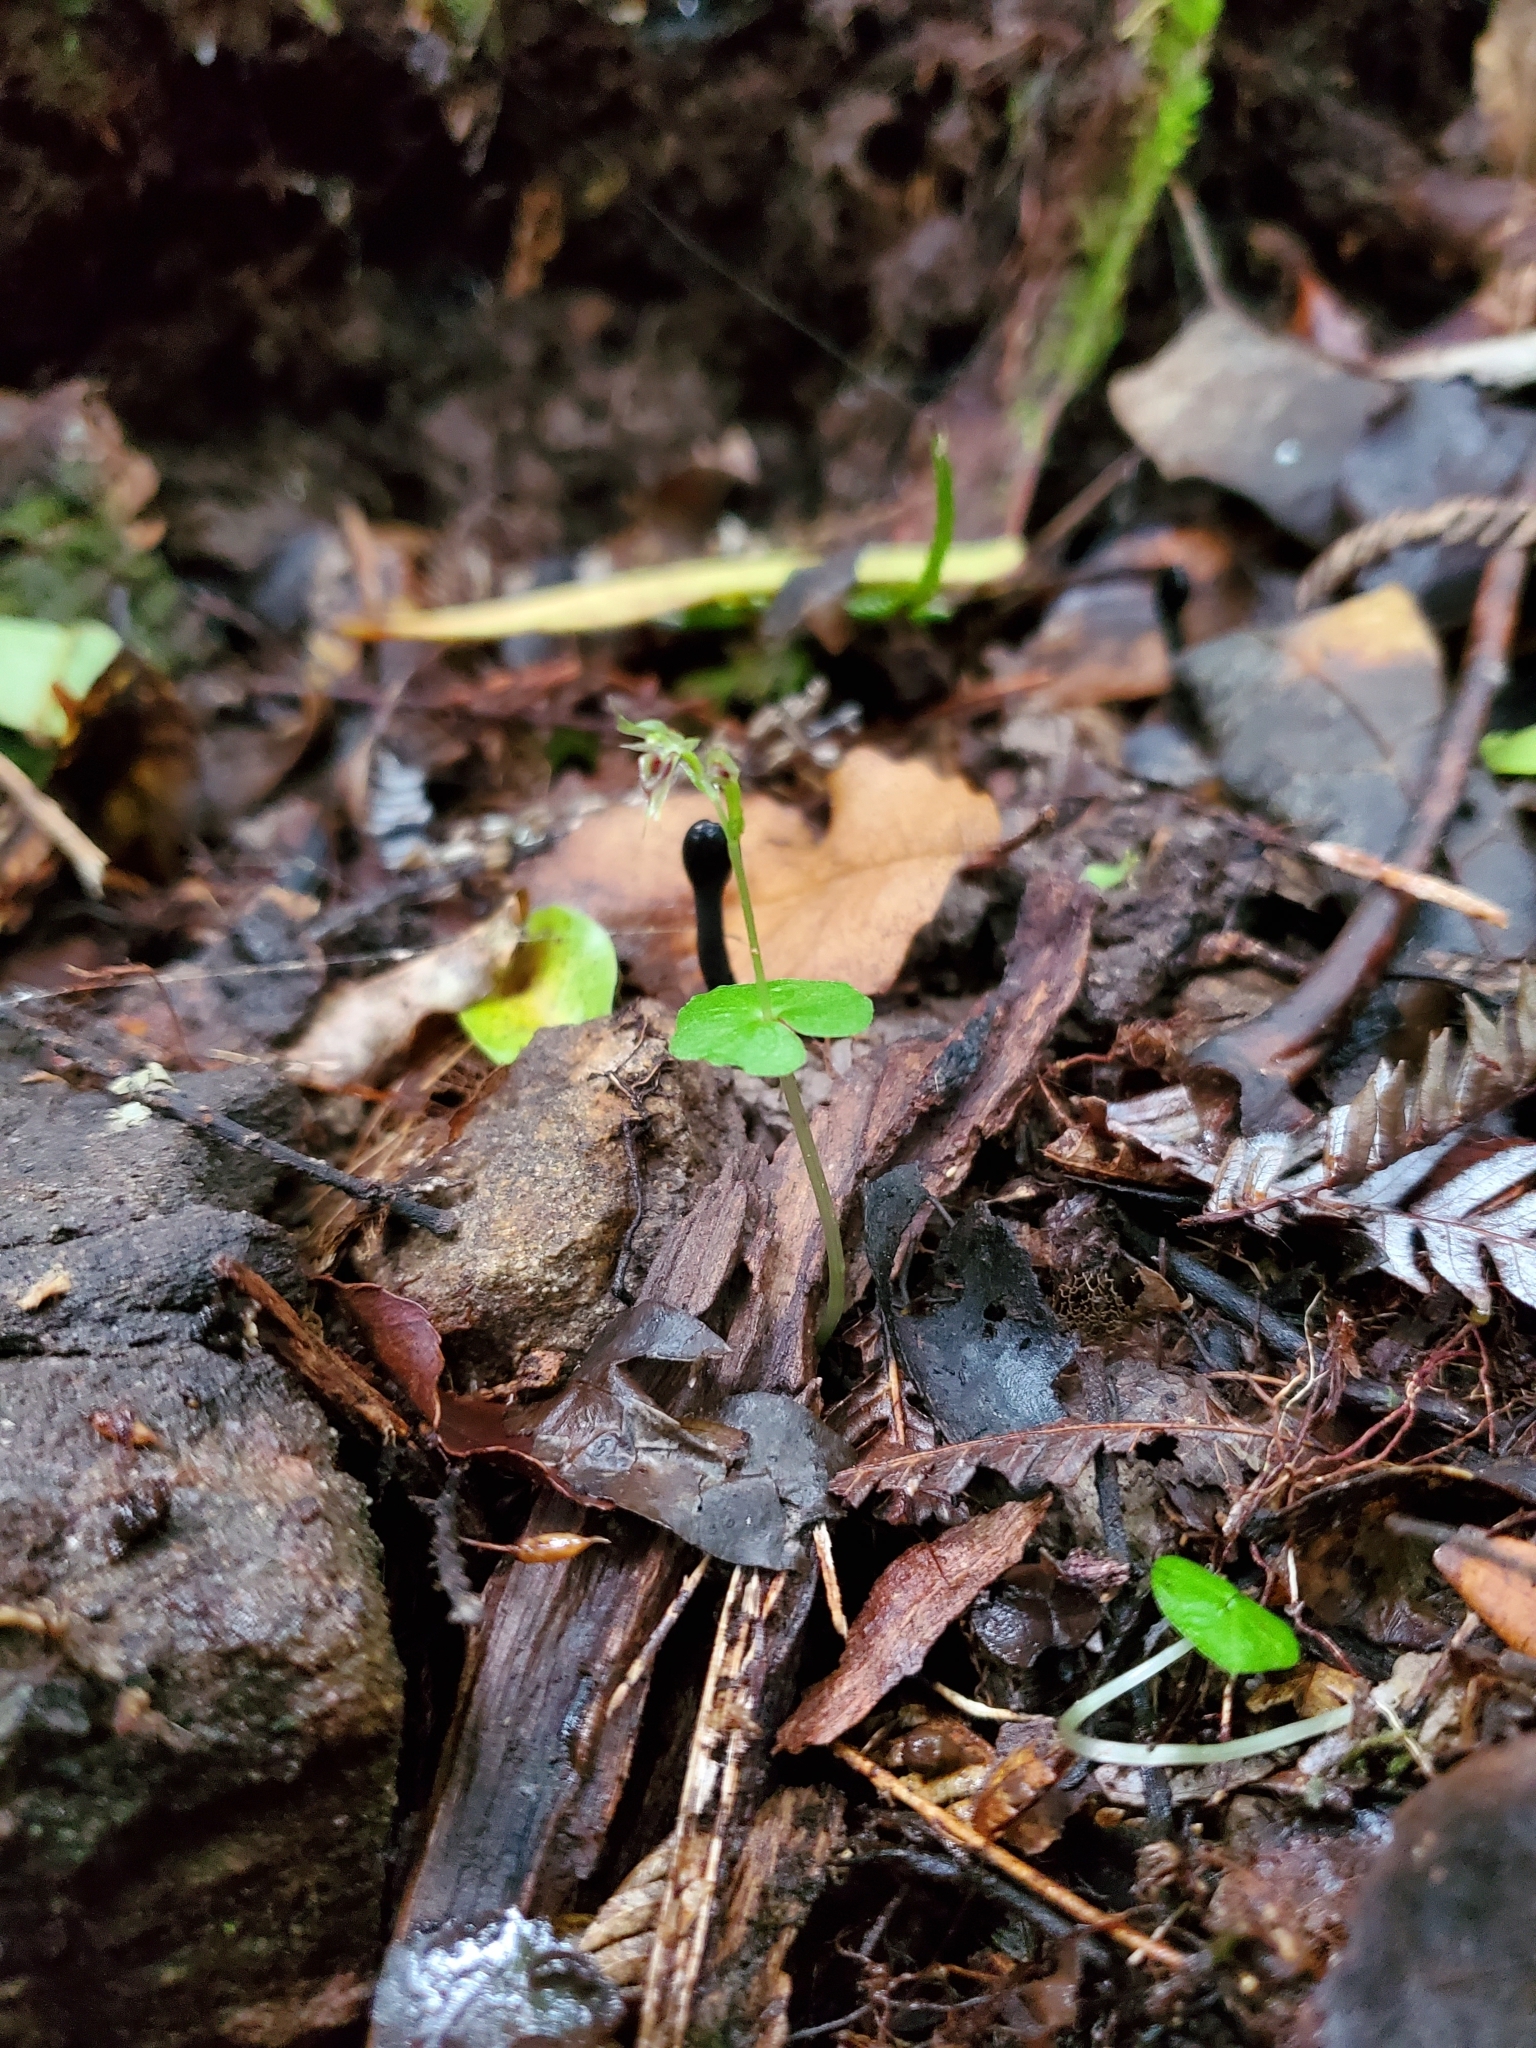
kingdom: Plantae
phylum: Tracheophyta
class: Liliopsida
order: Asparagales
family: Orchidaceae
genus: Acianthus
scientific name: Acianthus sinclairii
